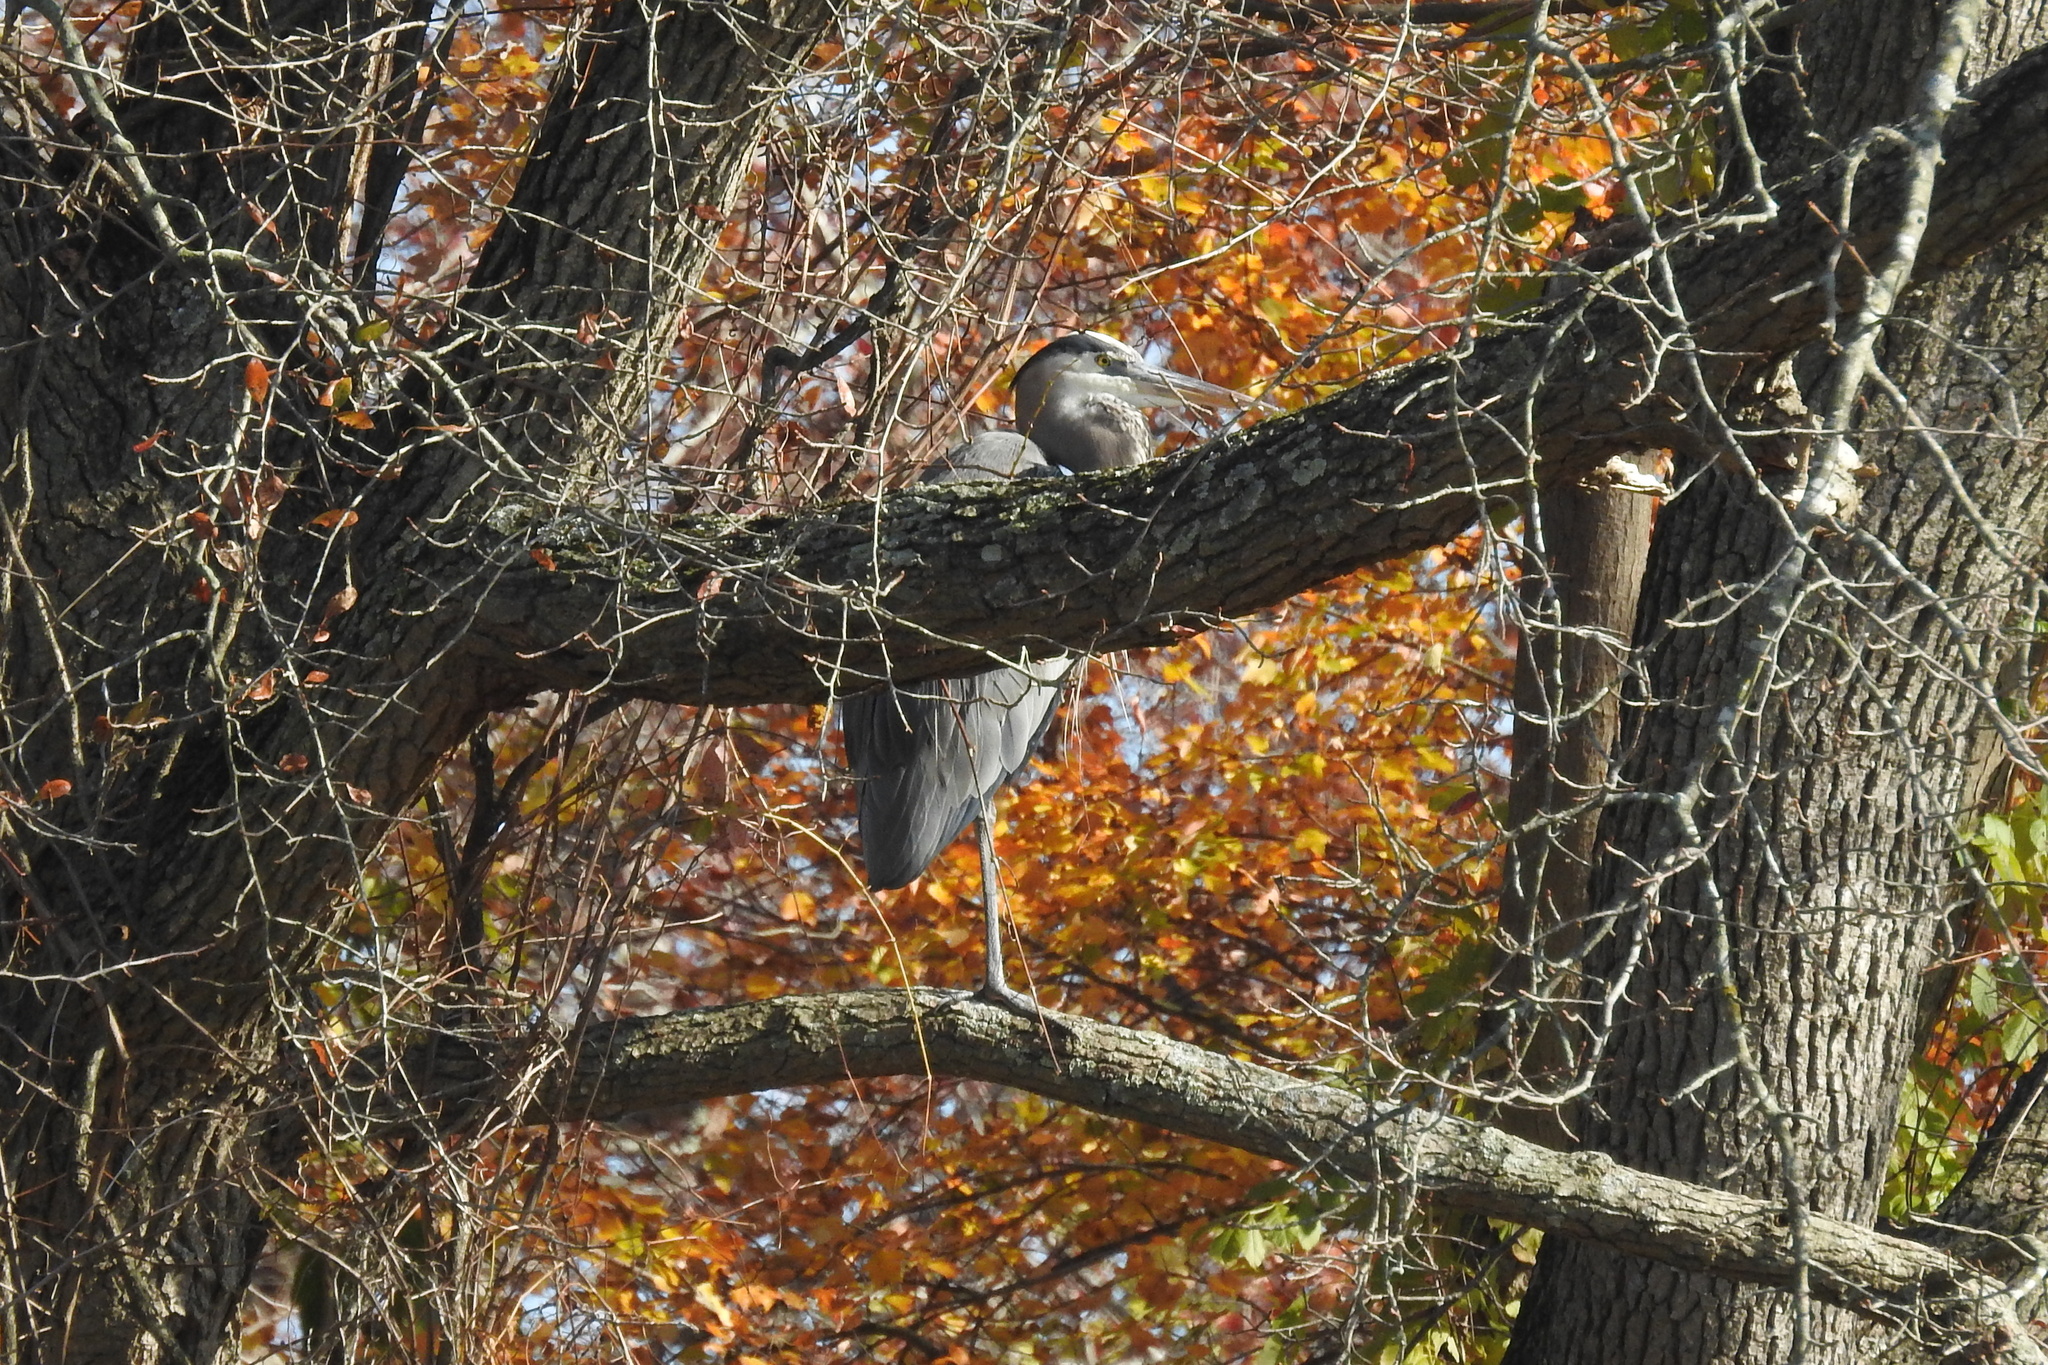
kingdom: Animalia
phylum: Chordata
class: Aves
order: Pelecaniformes
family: Ardeidae
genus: Ardea
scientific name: Ardea herodias
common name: Great blue heron
